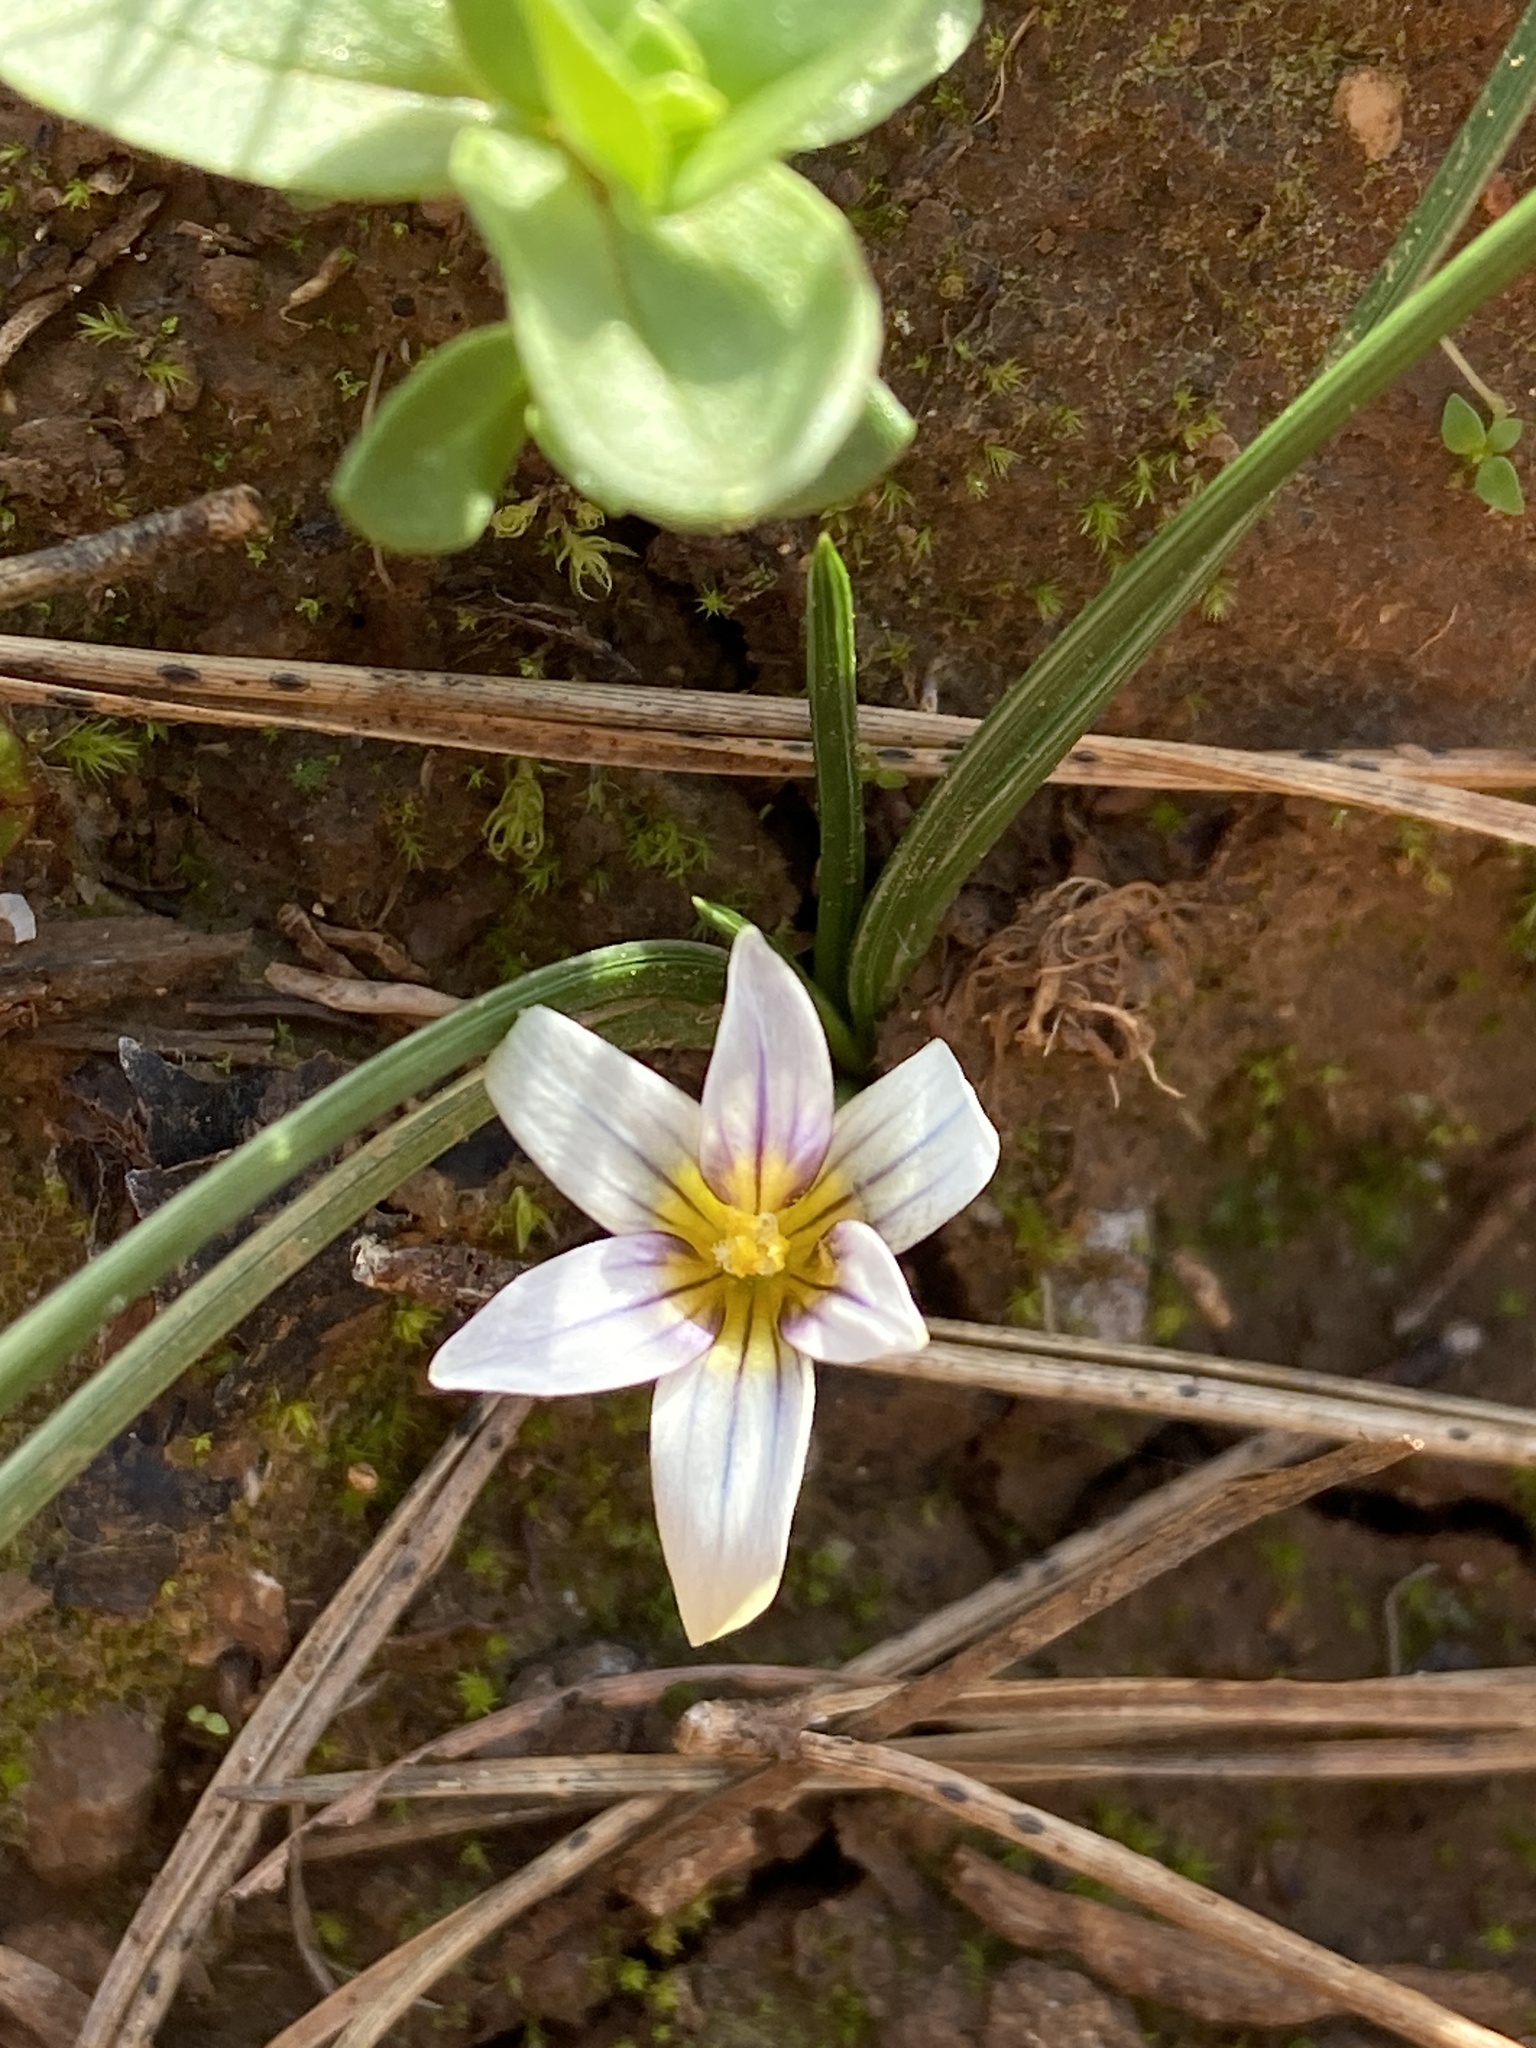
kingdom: Plantae
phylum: Tracheophyta
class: Liliopsida
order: Asparagales
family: Iridaceae
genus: Romulea
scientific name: Romulea columnae
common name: Sand-crocus
